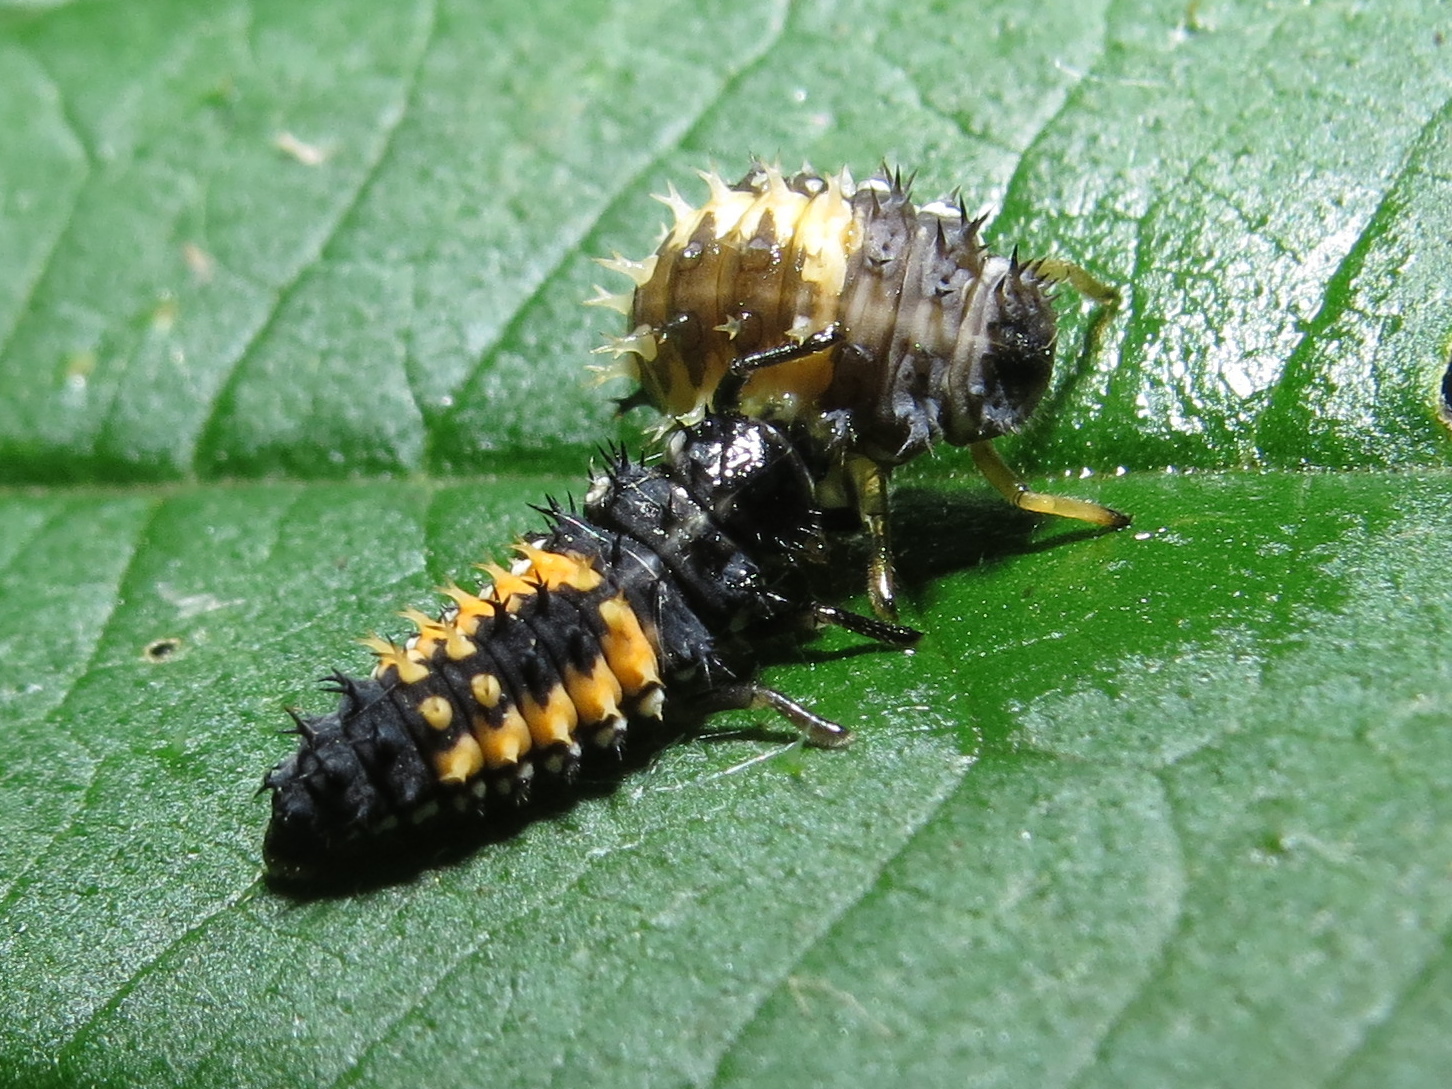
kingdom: Animalia
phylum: Arthropoda
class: Insecta
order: Coleoptera
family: Coccinellidae
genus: Harmonia
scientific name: Harmonia axyridis
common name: Harlequin ladybird
